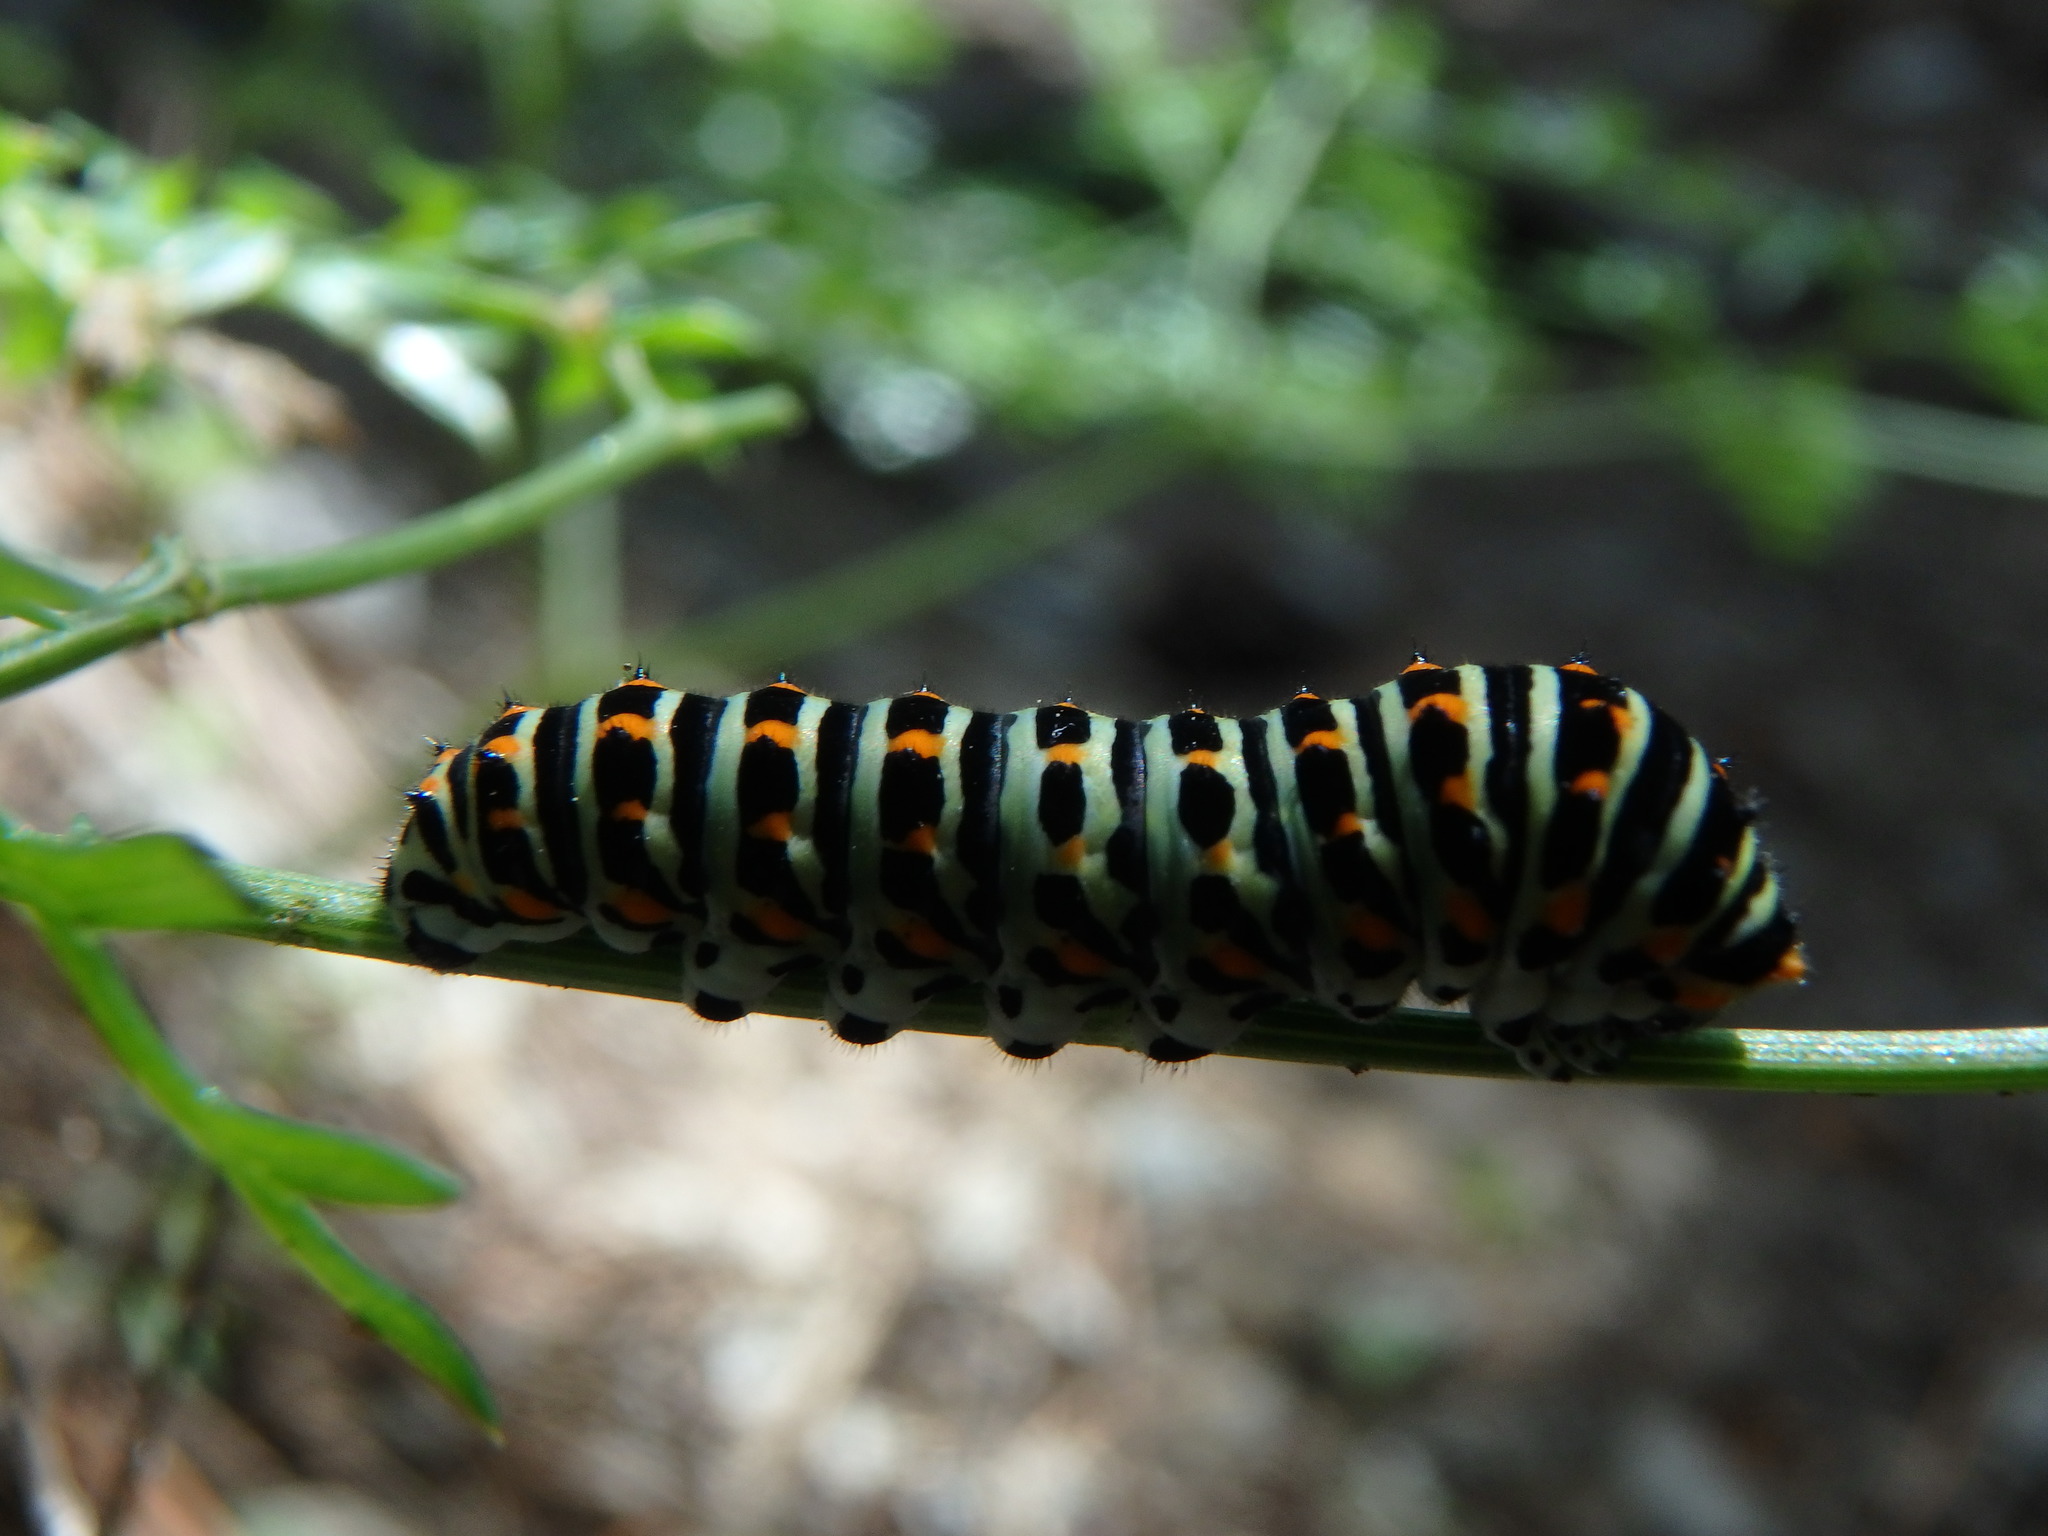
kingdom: Animalia
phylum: Arthropoda
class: Insecta
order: Lepidoptera
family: Papilionidae
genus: Papilio
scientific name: Papilio machaon
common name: Swallowtail
